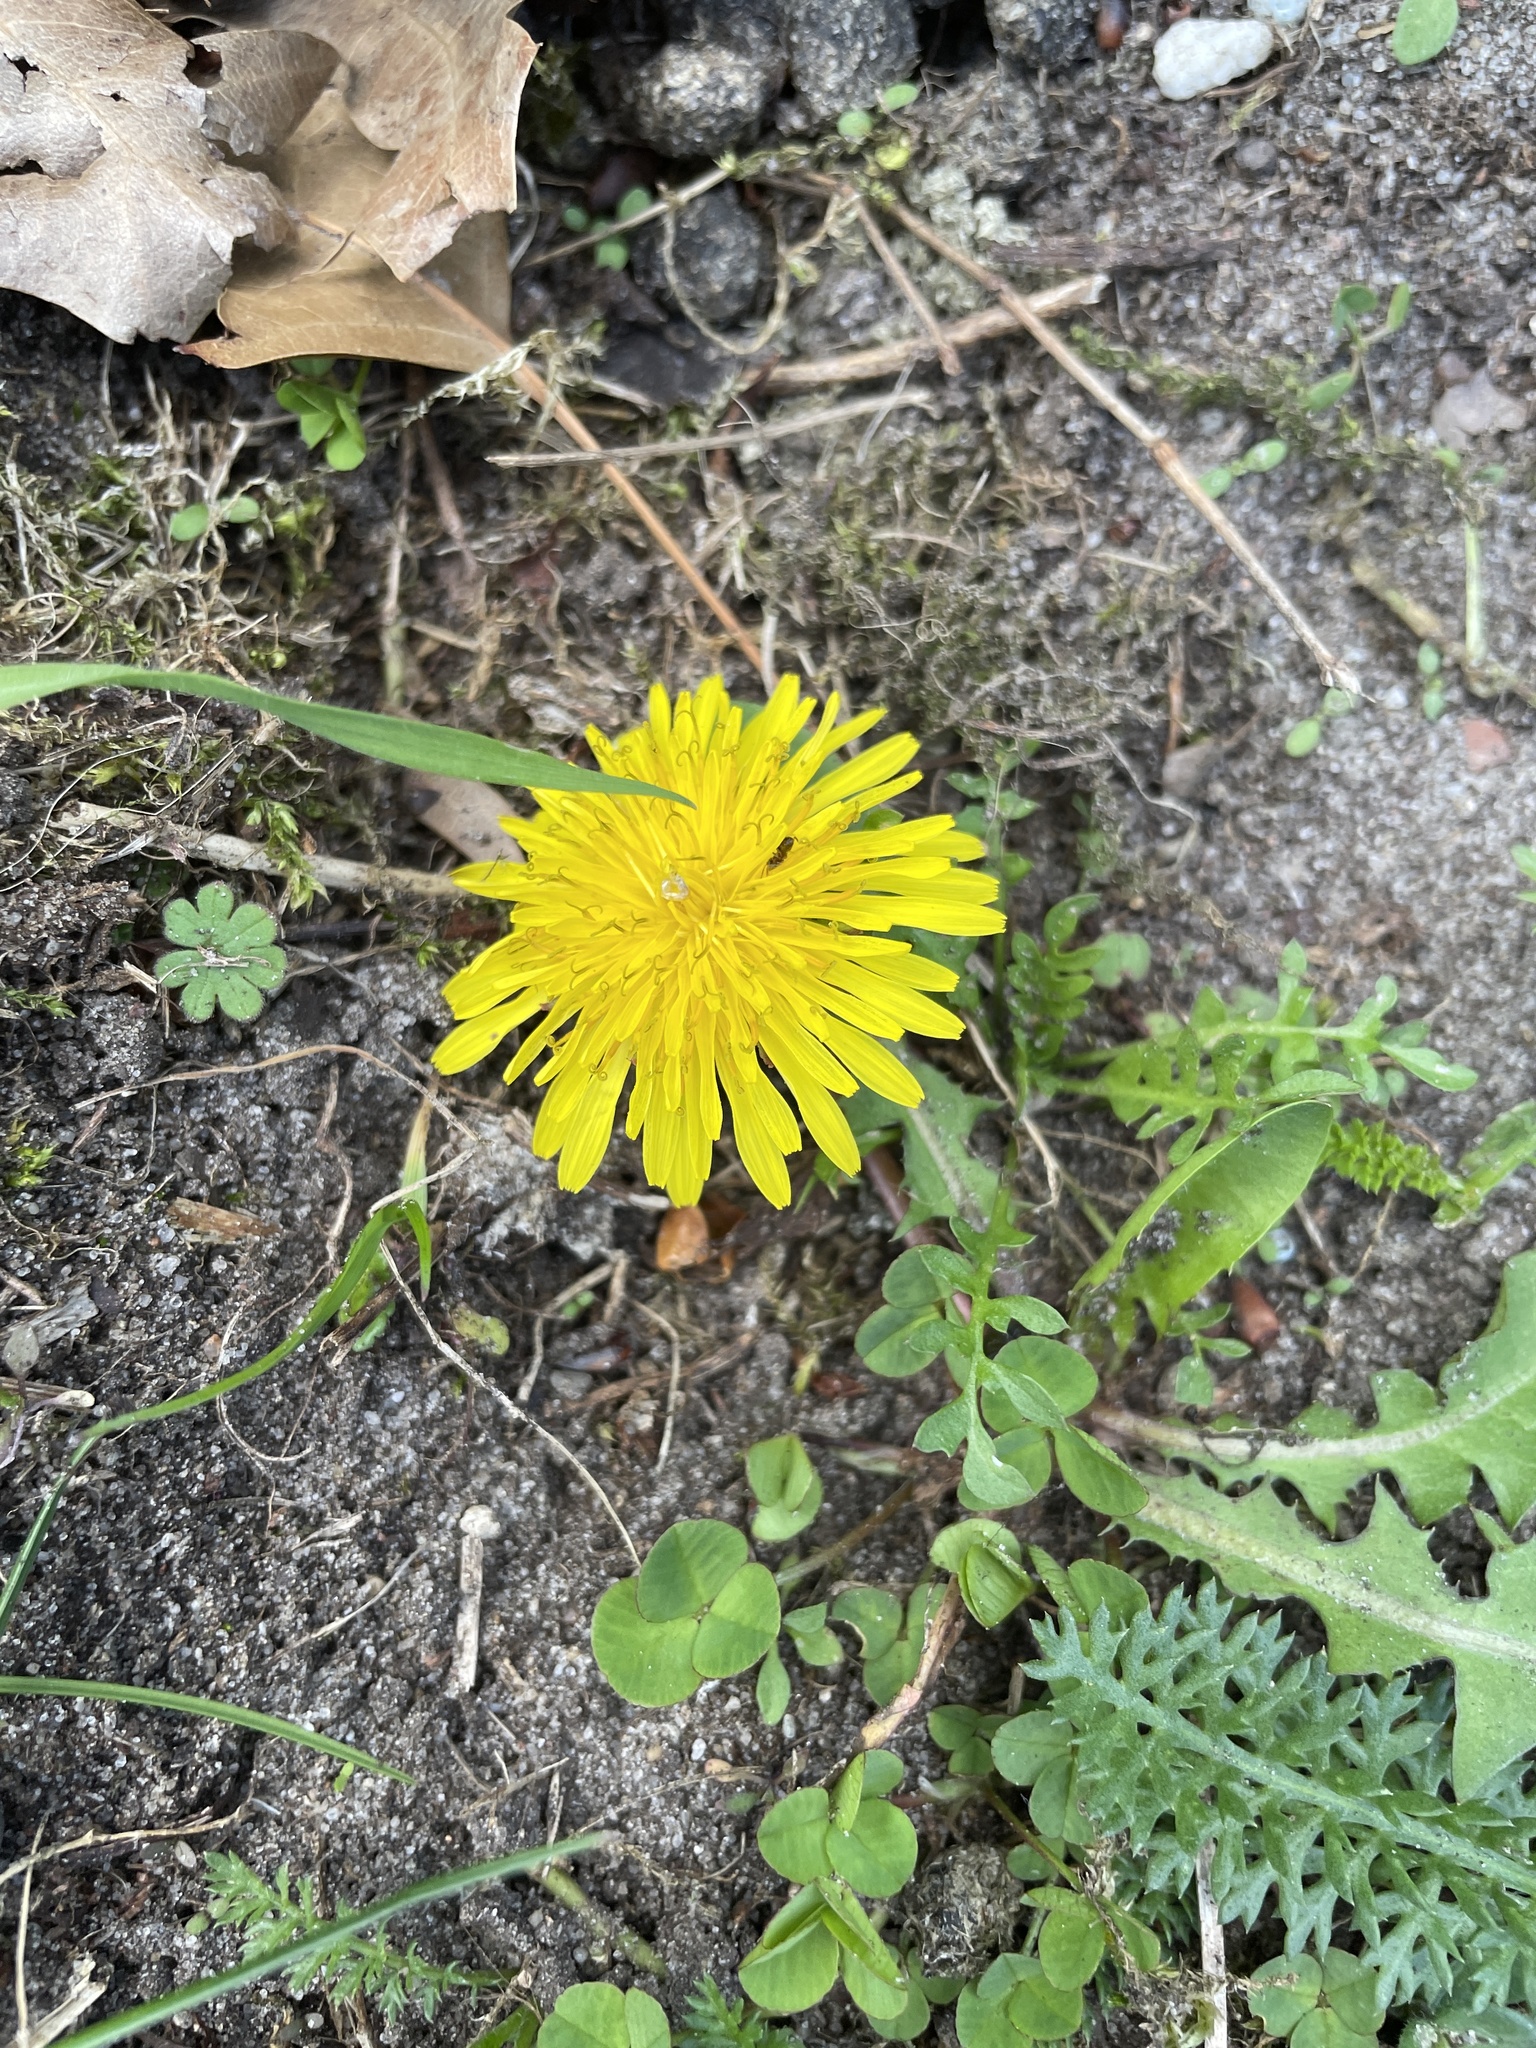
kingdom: Plantae
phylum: Tracheophyta
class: Magnoliopsida
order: Asterales
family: Asteraceae
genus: Taraxacum
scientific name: Taraxacum
